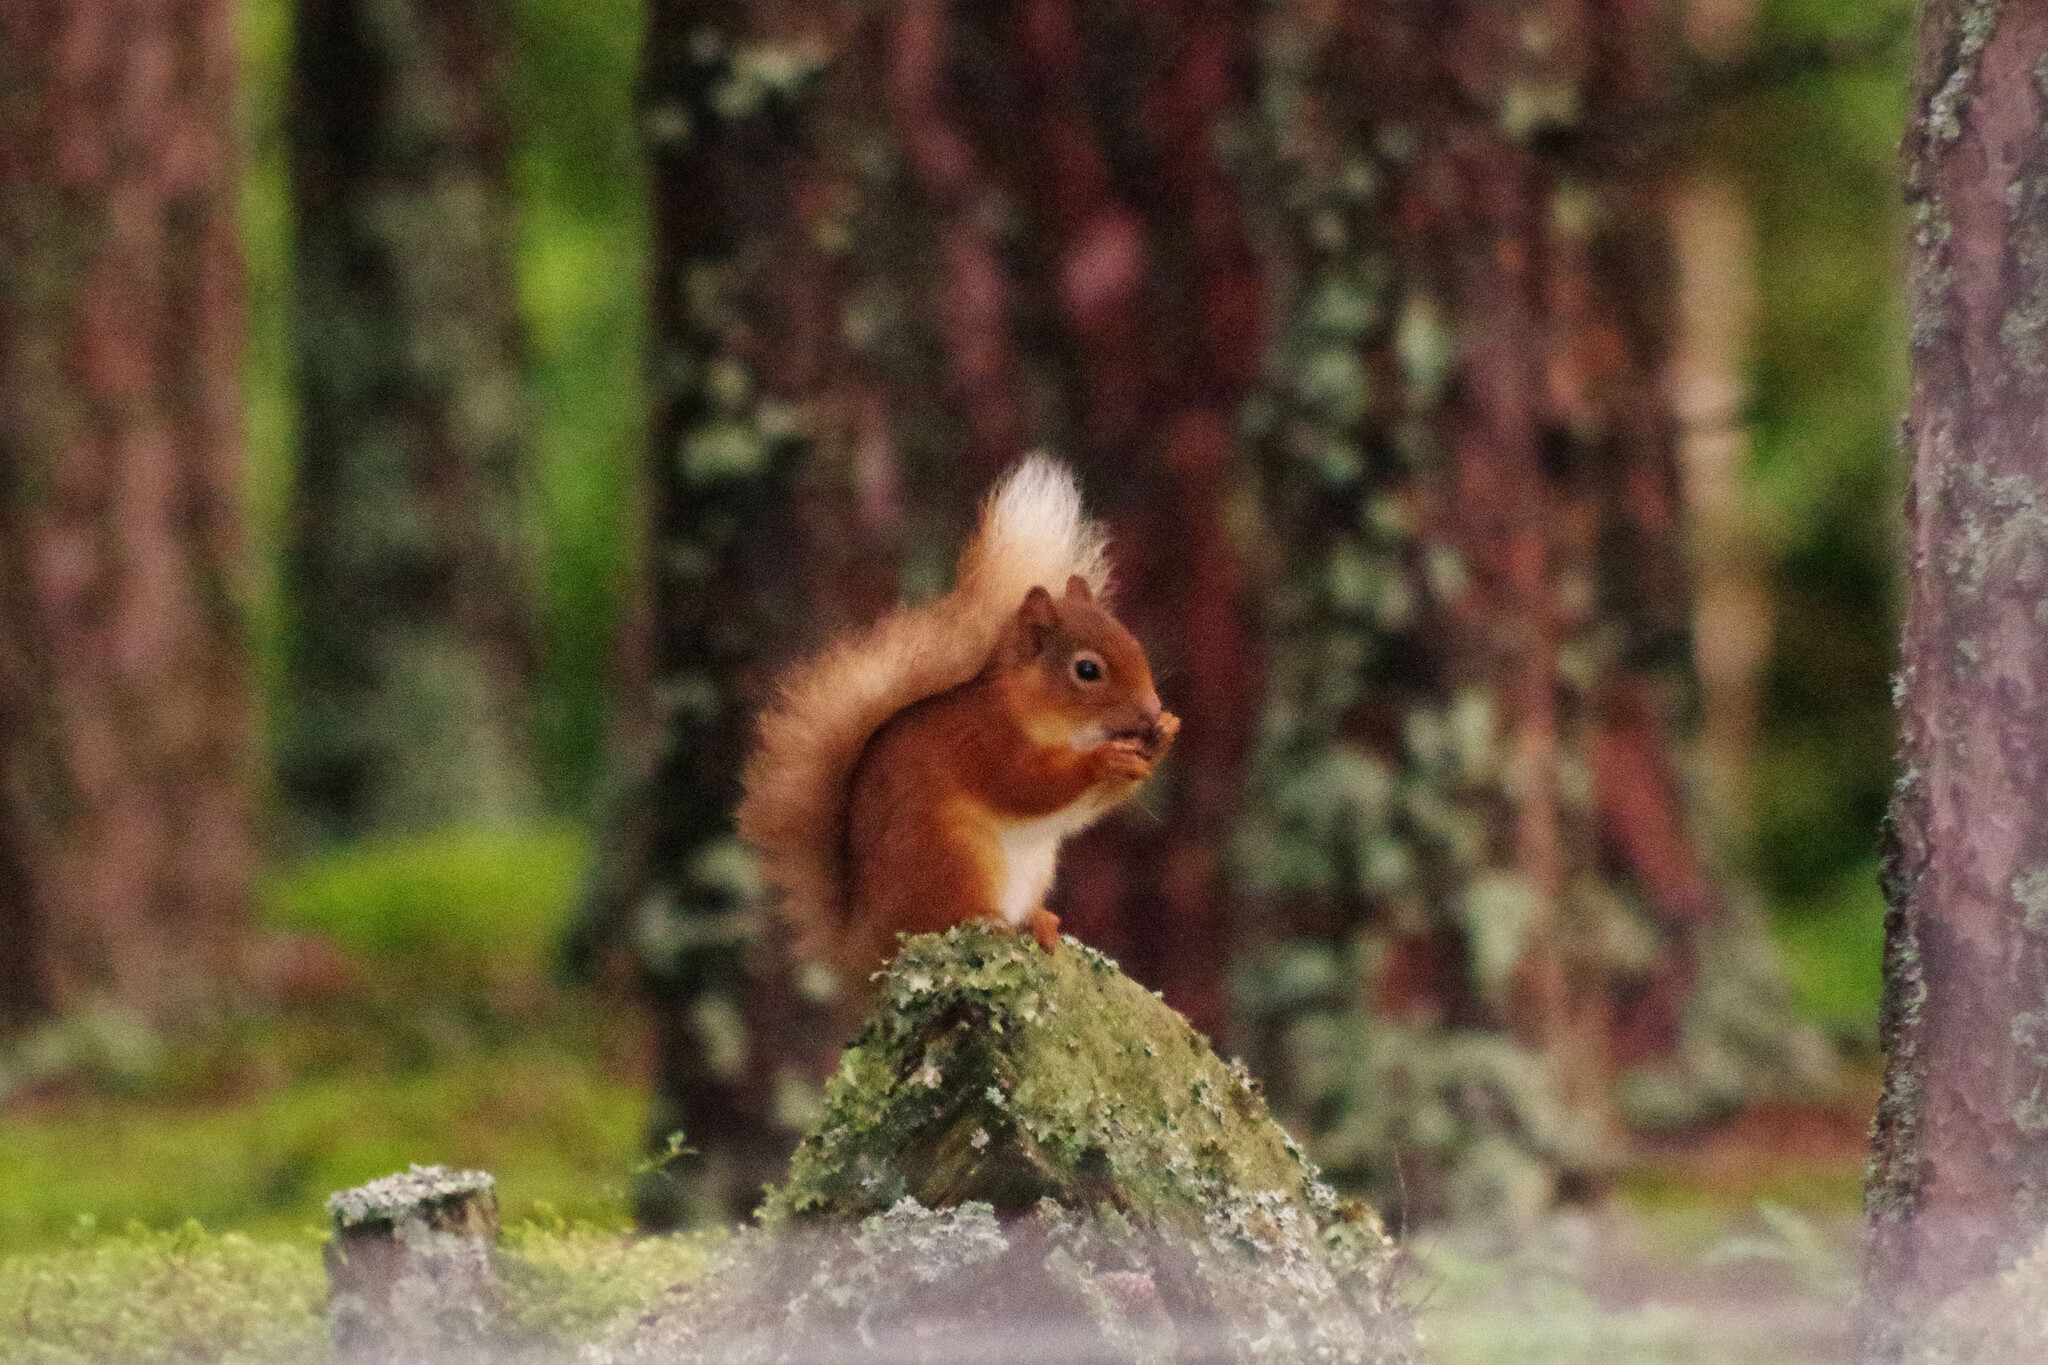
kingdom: Animalia
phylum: Chordata
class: Mammalia
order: Rodentia
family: Sciuridae
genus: Sciurus
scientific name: Sciurus vulgaris
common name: Eurasian red squirrel
